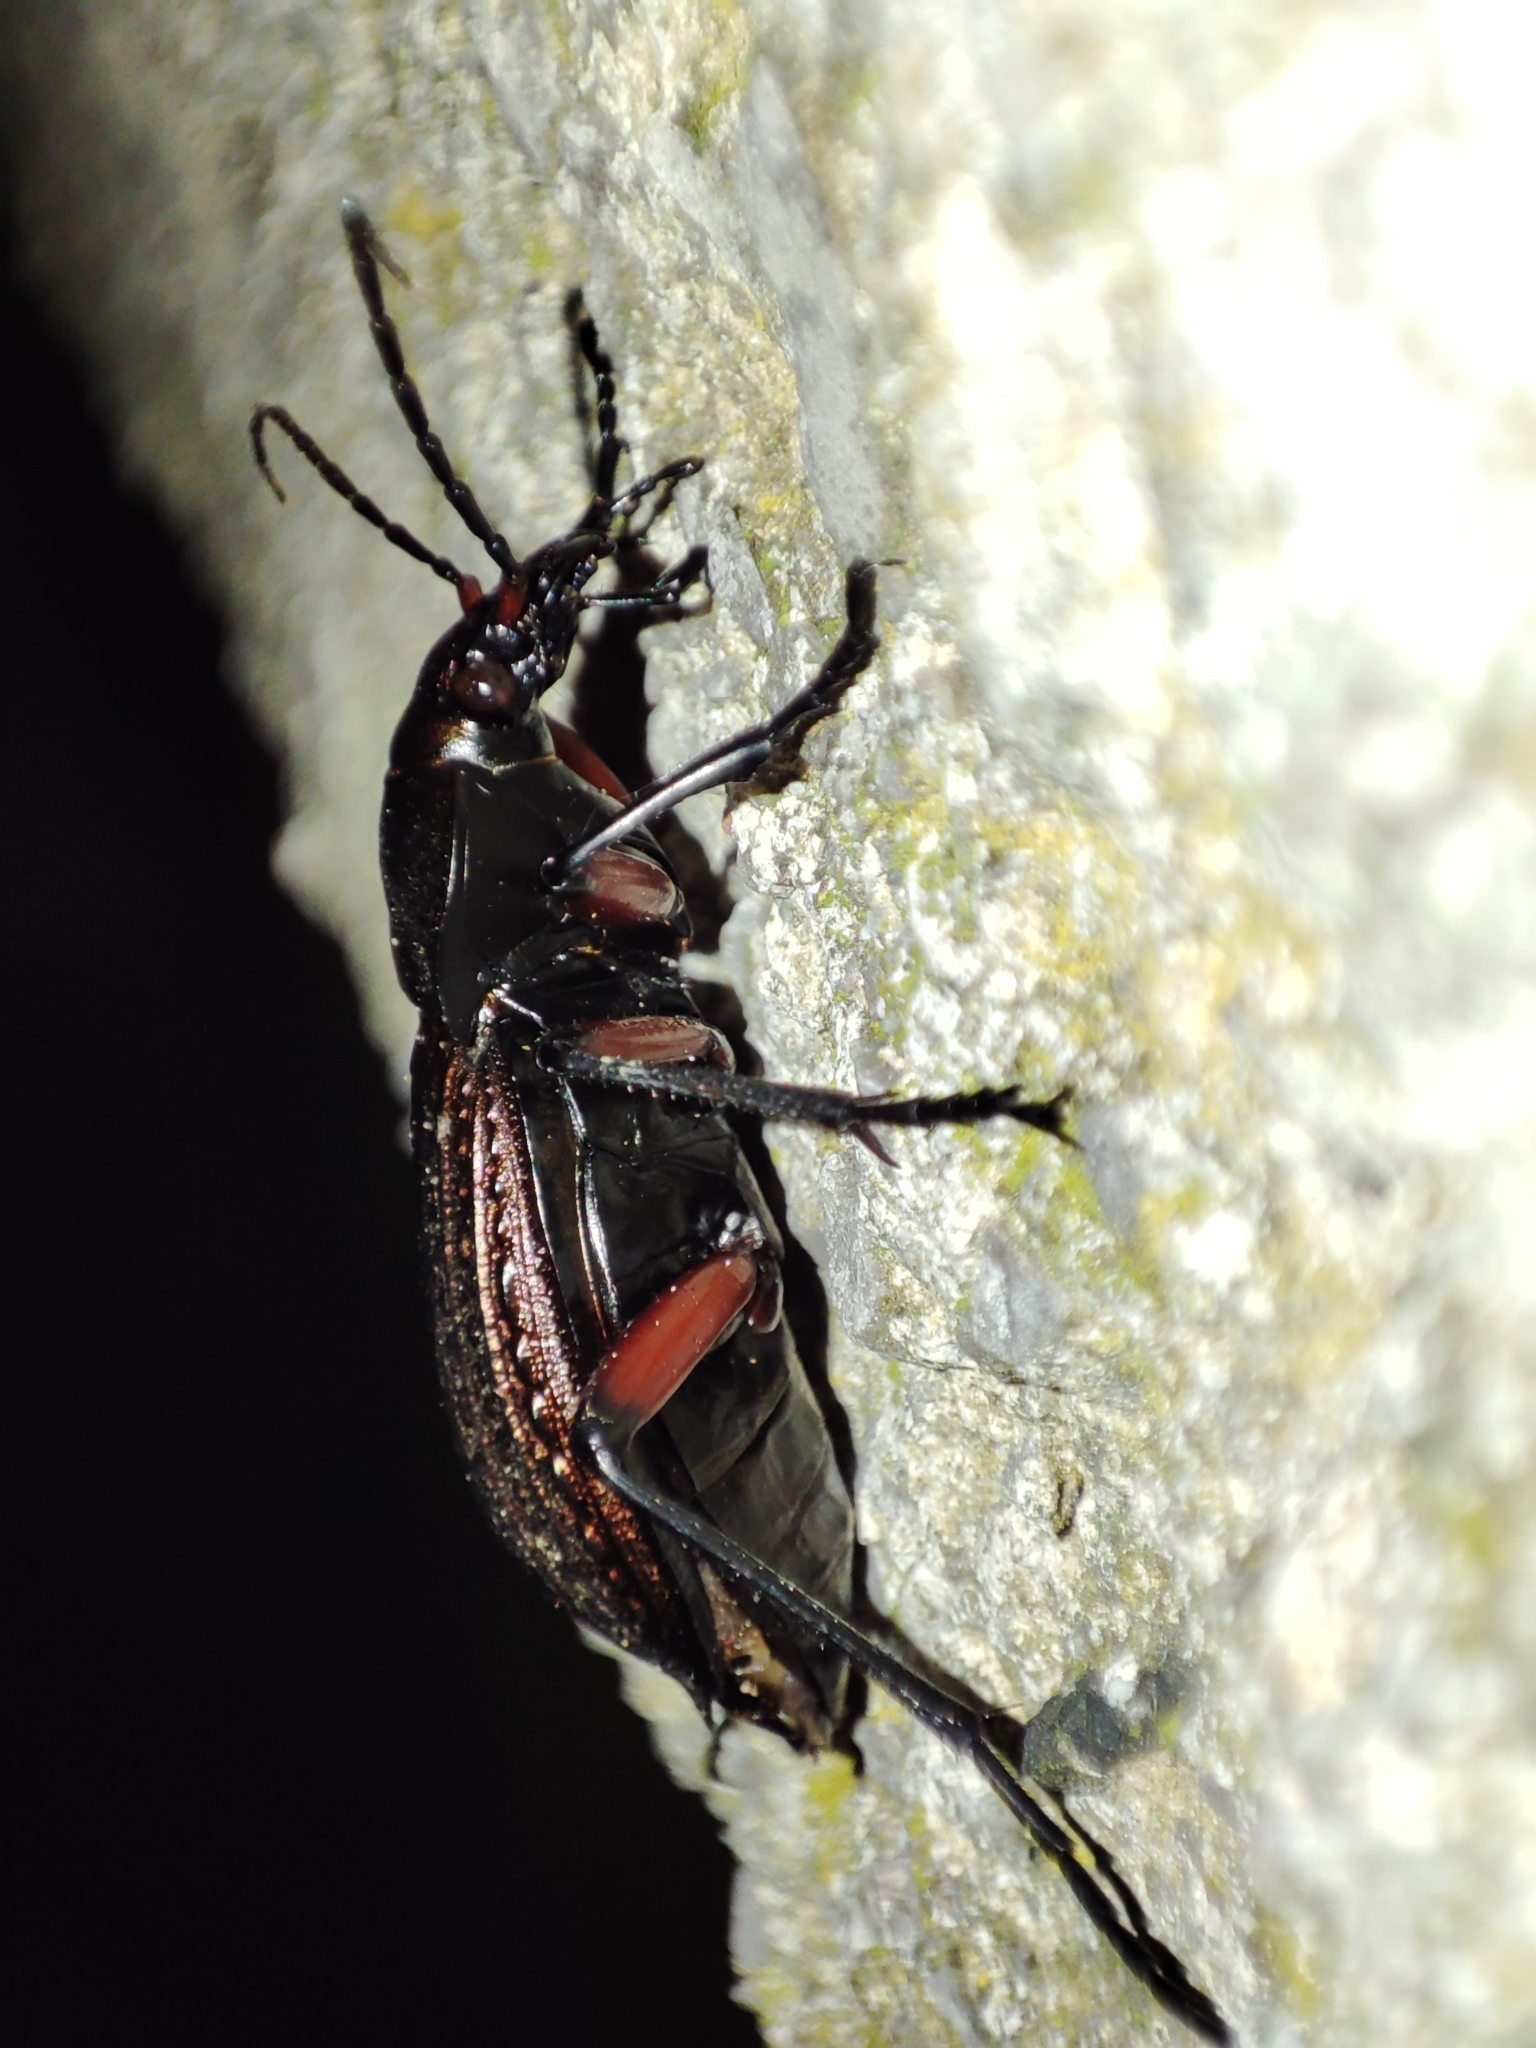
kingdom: Animalia
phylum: Arthropoda
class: Insecta
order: Coleoptera
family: Carabidae
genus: Carabus
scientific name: Carabus cancellatus
